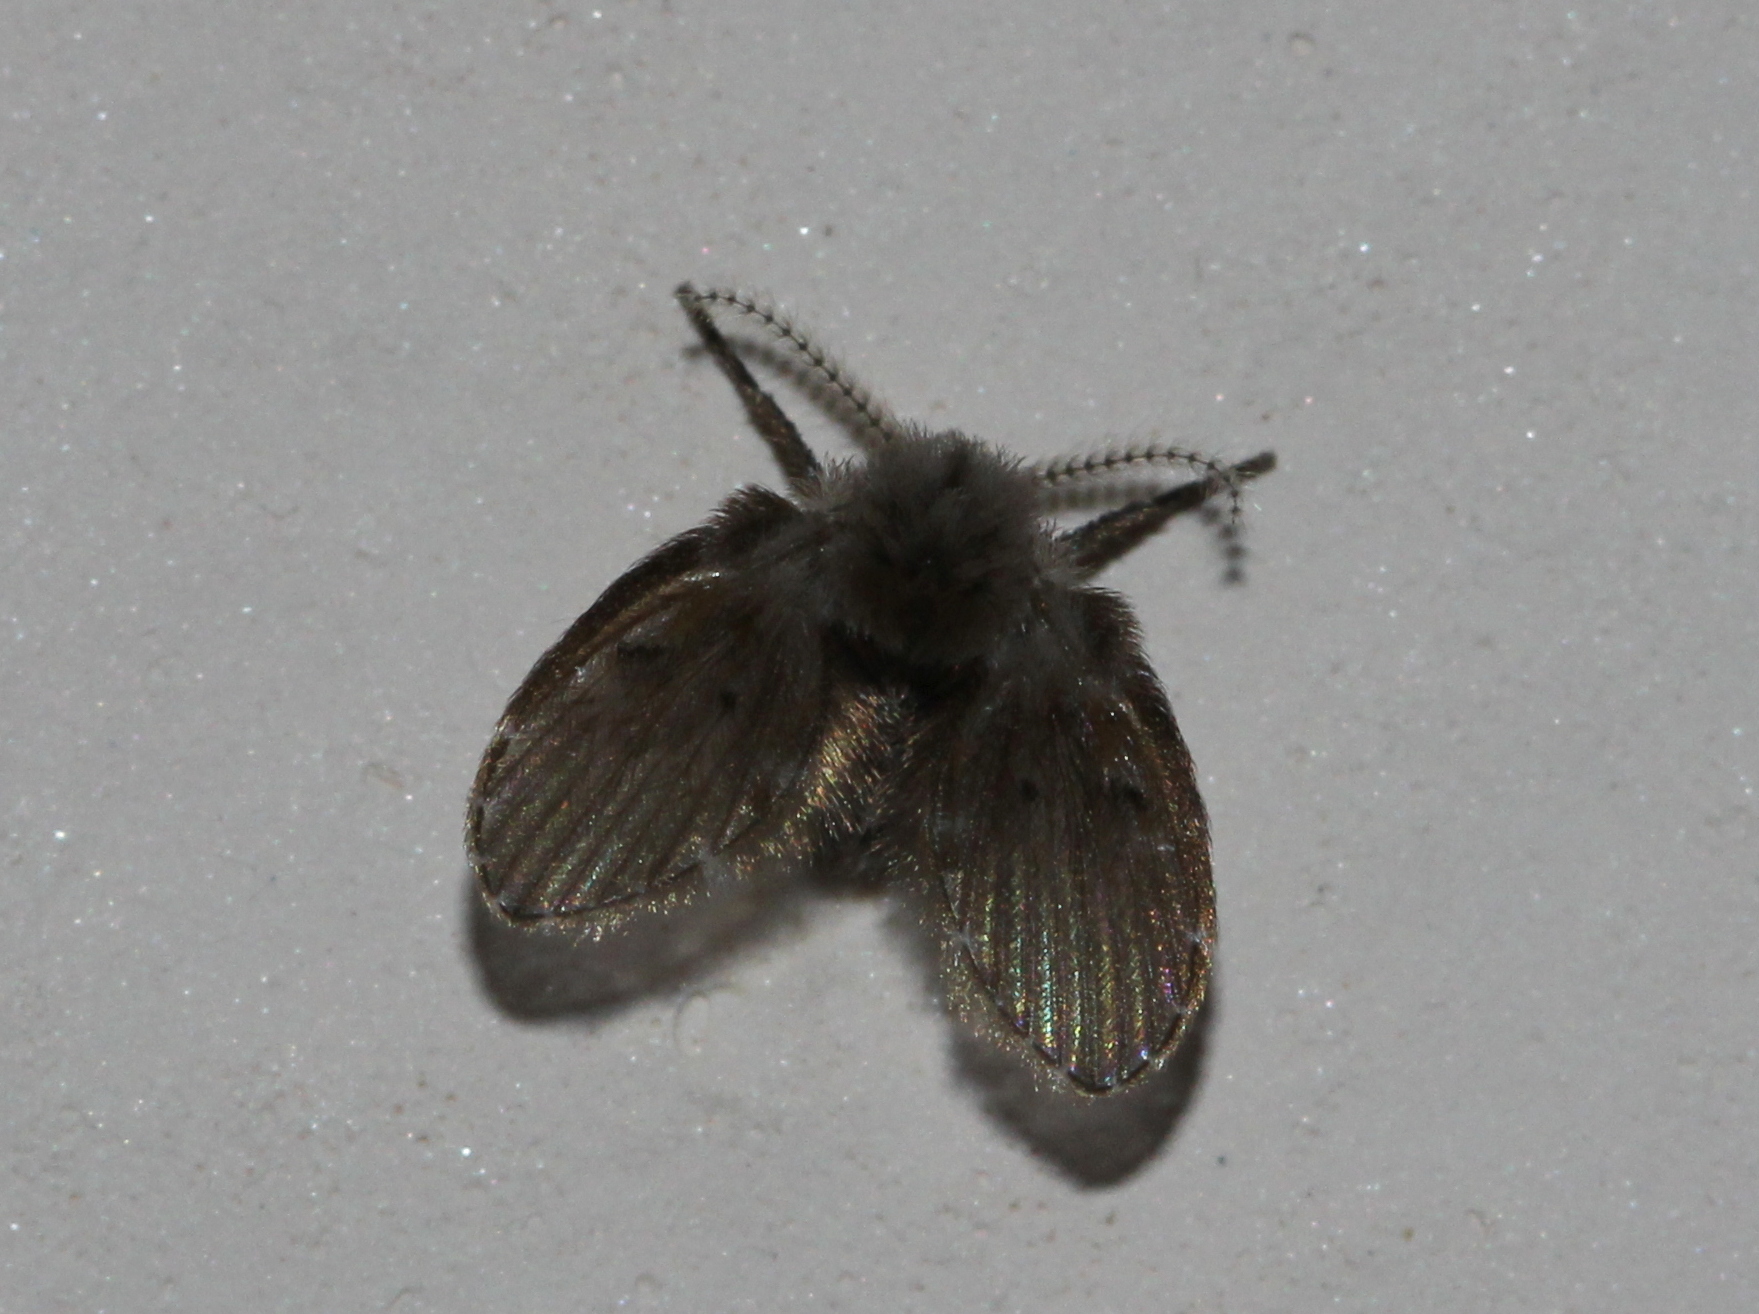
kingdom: Animalia
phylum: Arthropoda
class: Insecta
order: Diptera
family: Psychodidae
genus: Clogmia
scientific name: Clogmia albipunctatus
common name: White-spotted moth fly
